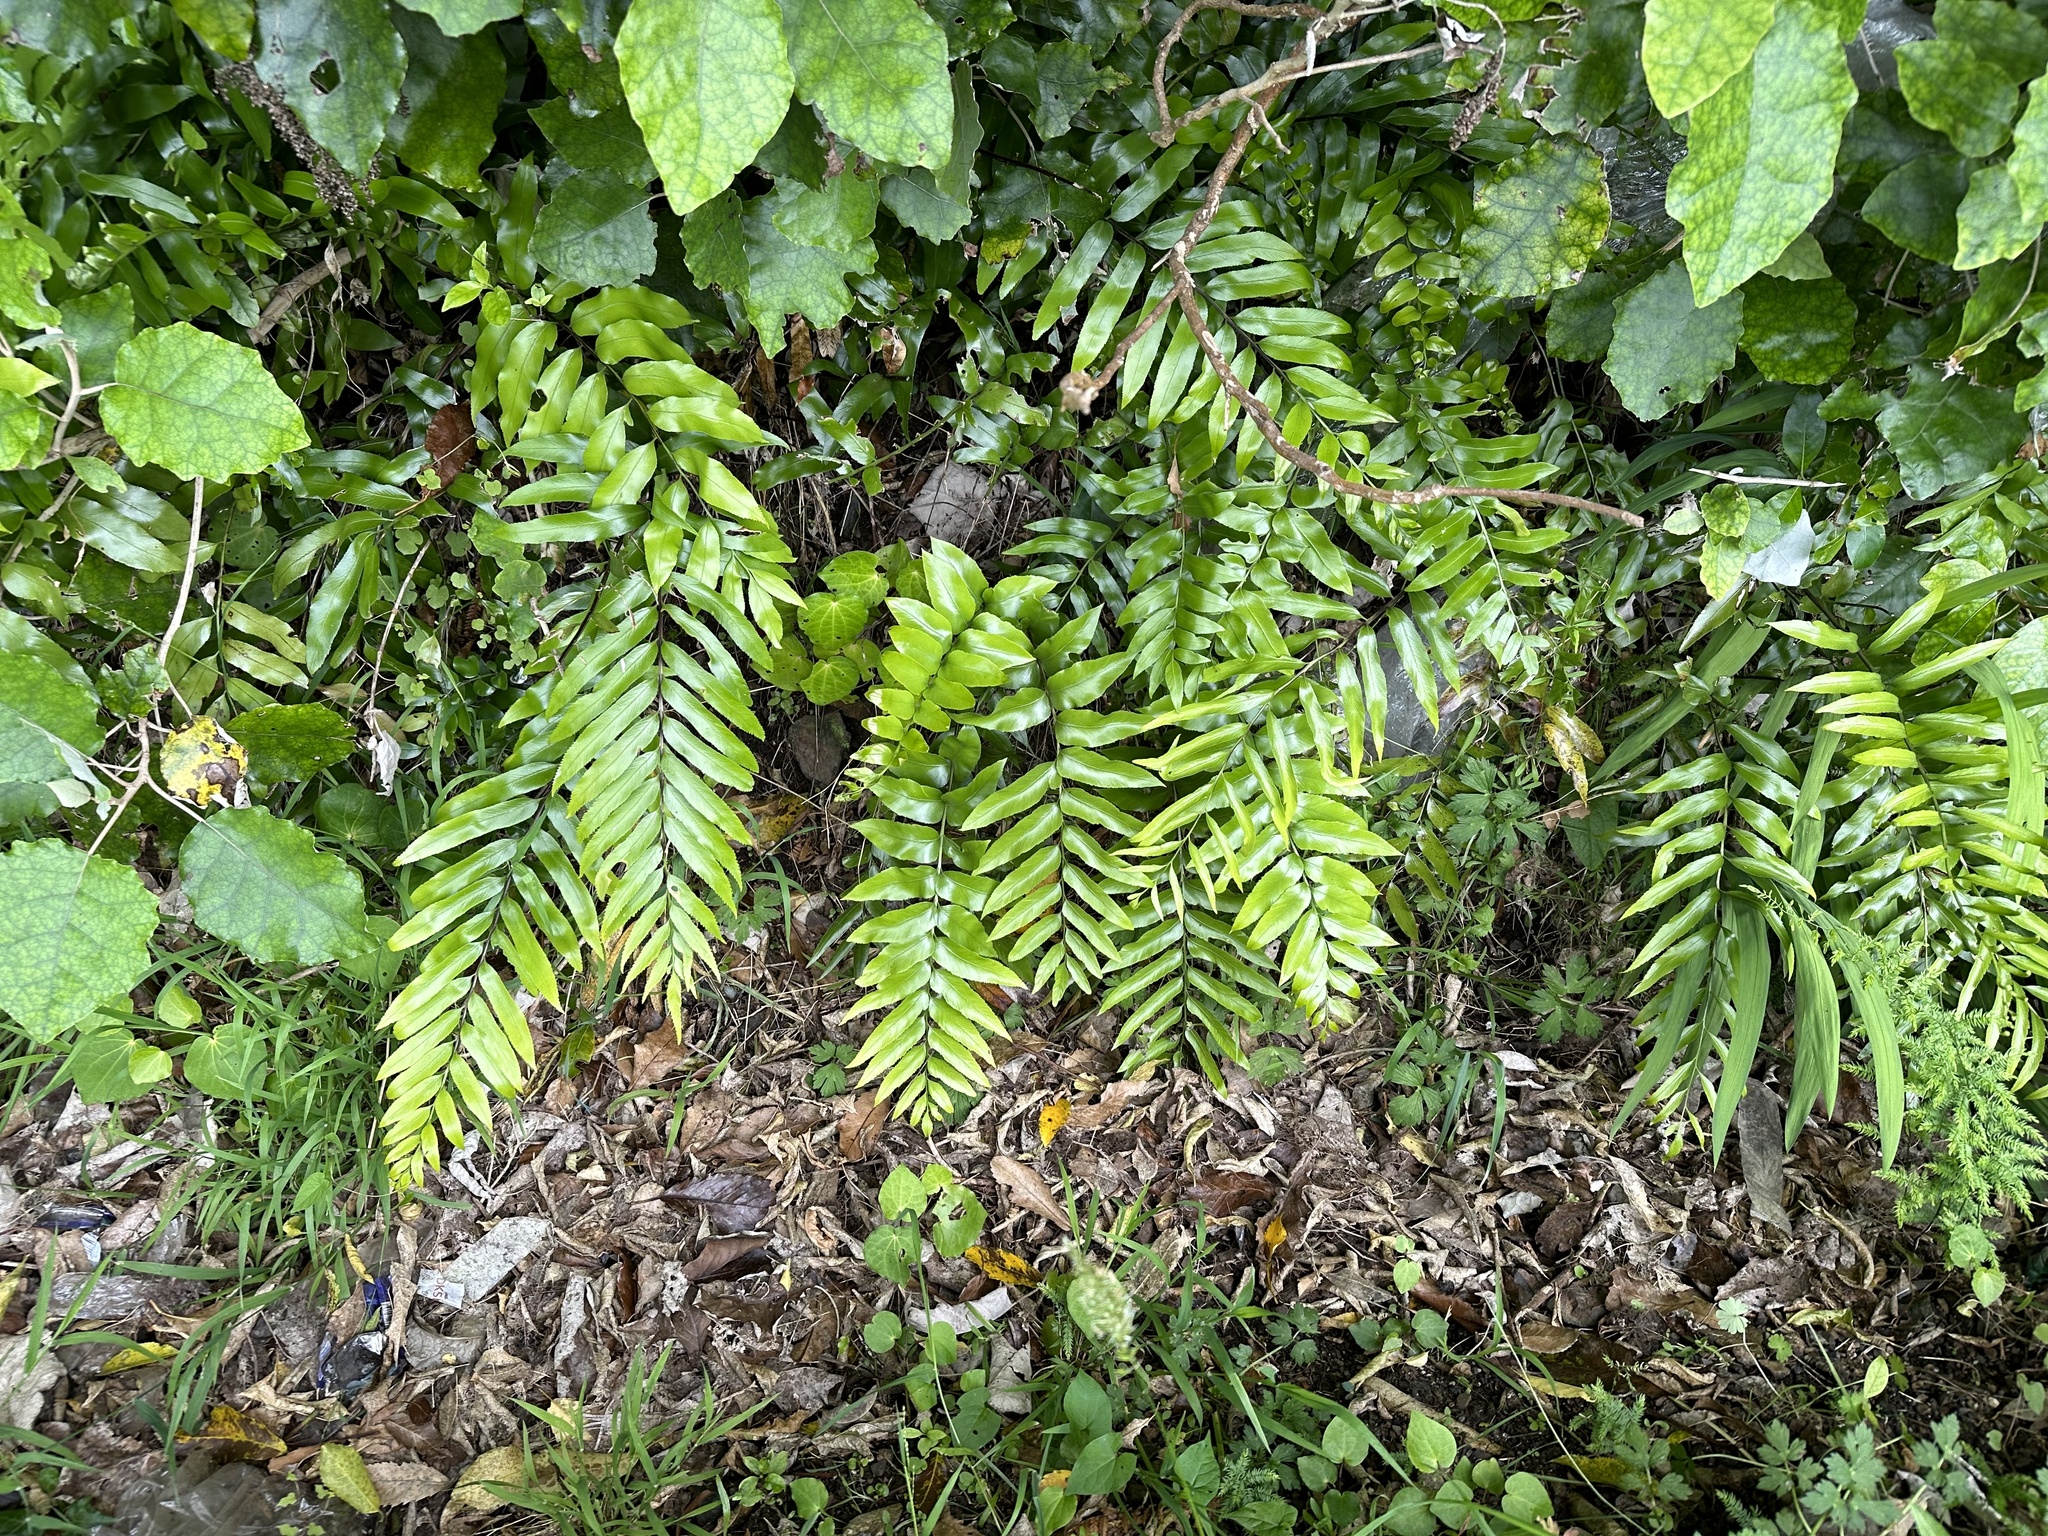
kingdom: Plantae
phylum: Tracheophyta
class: Polypodiopsida
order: Polypodiales
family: Aspleniaceae
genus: Asplenium
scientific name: Asplenium oblongifolium
